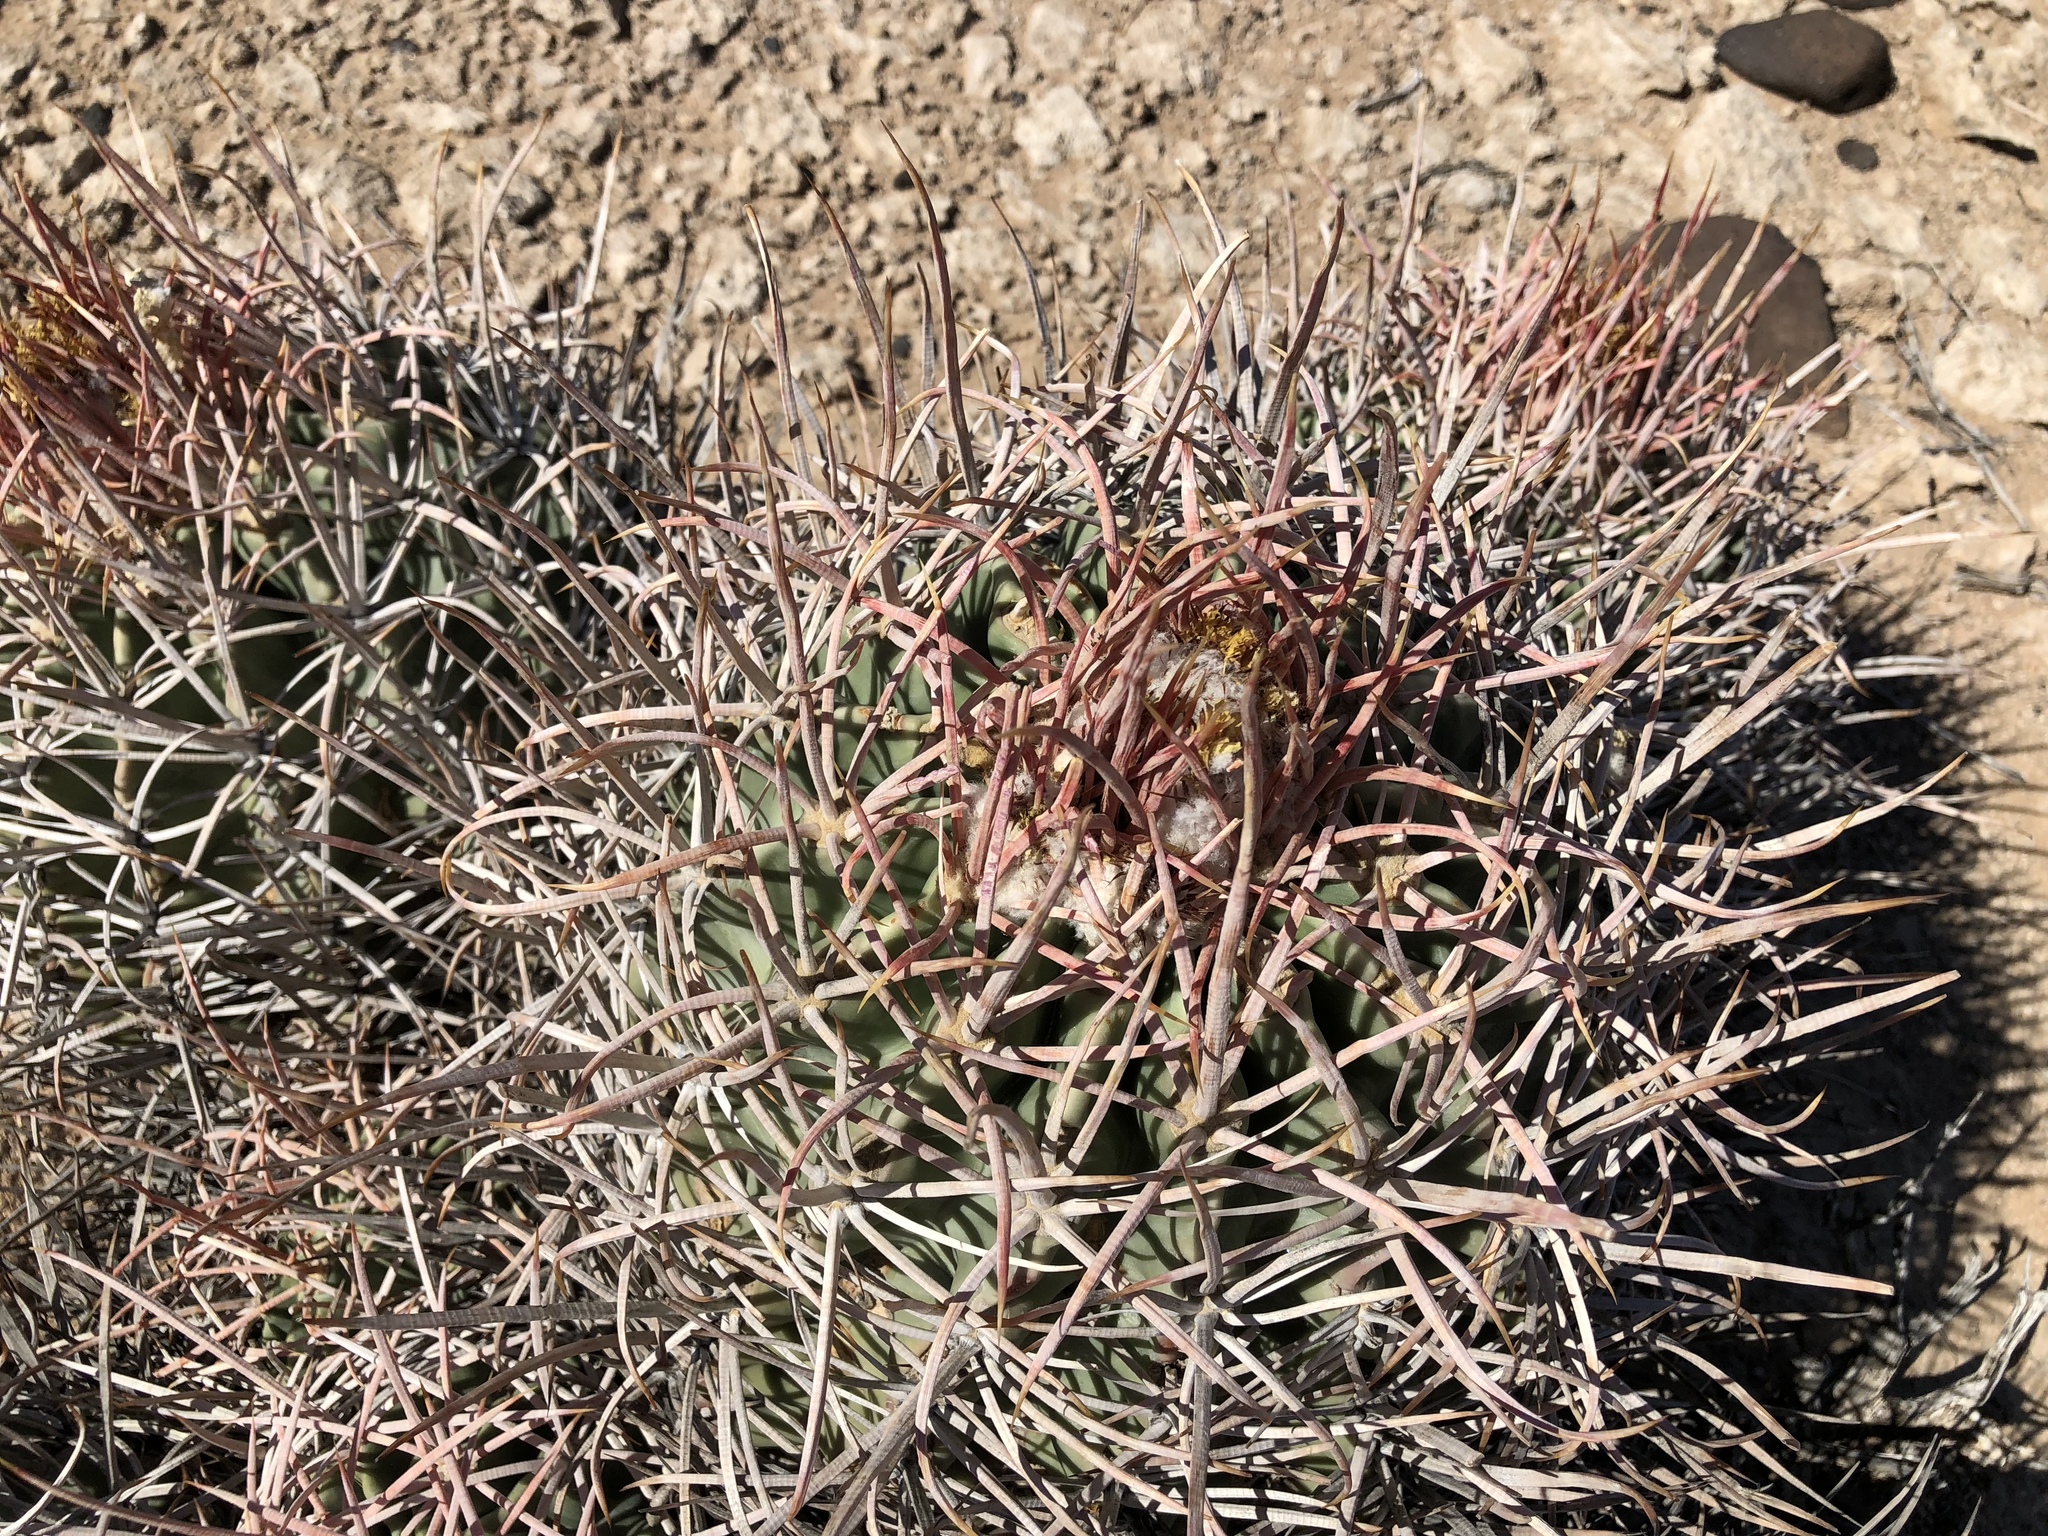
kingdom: Plantae
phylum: Tracheophyta
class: Magnoliopsida
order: Caryophyllales
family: Cactaceae
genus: Echinocactus
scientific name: Echinocactus polycephalus
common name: Cottontop cactus
